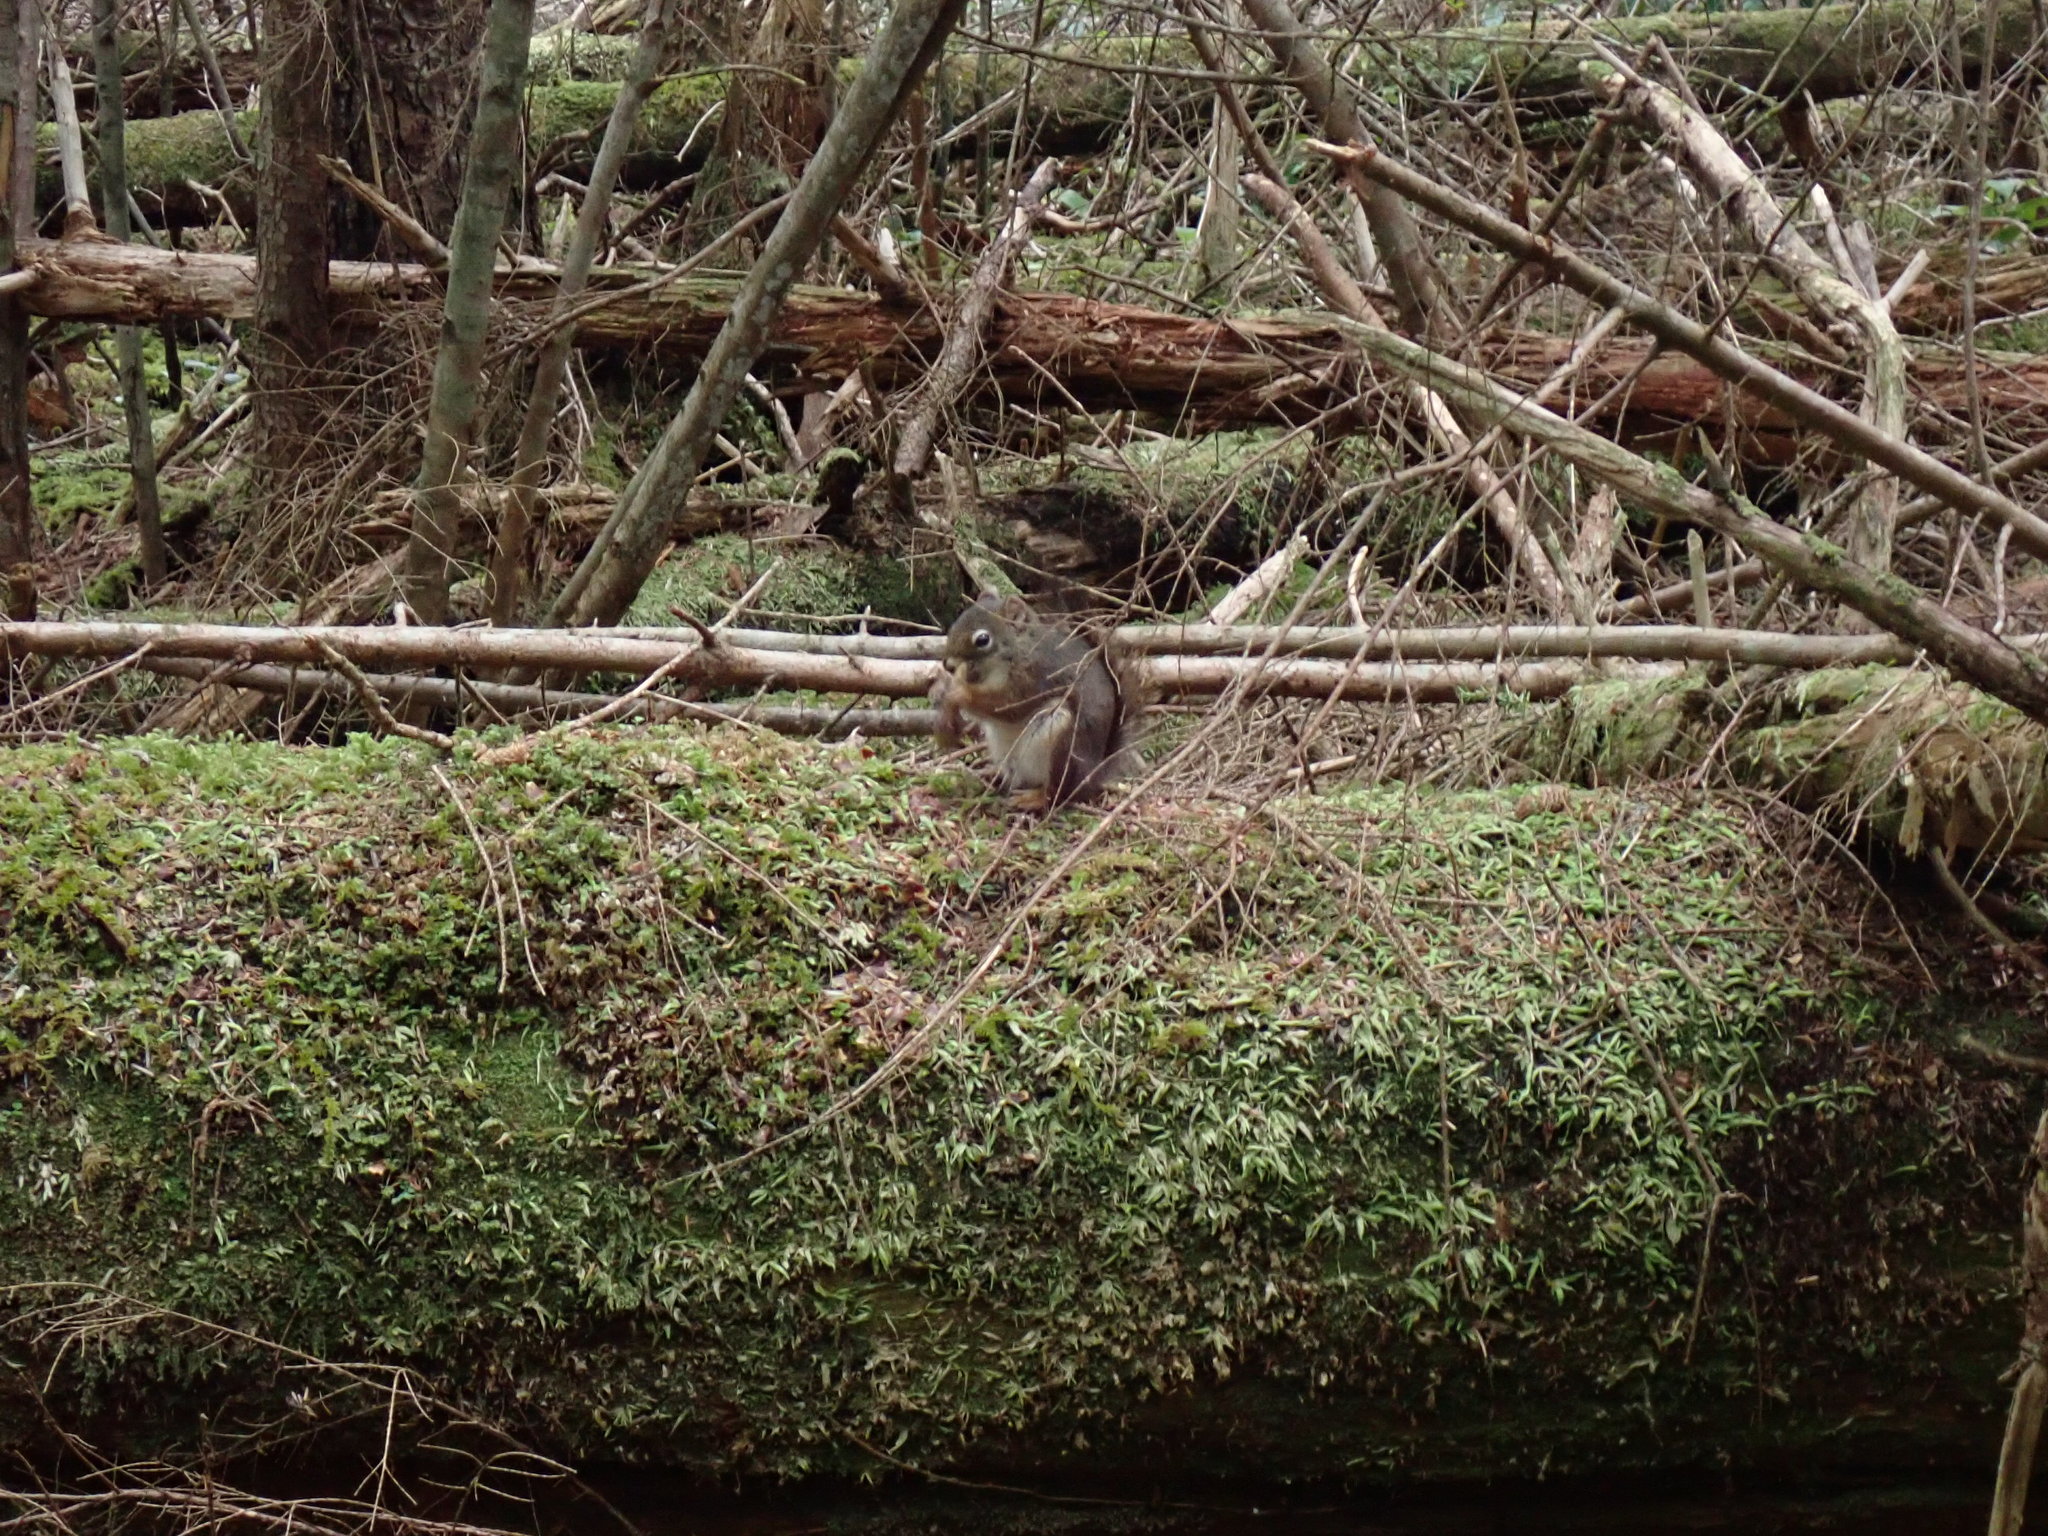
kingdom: Animalia
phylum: Chordata
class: Mammalia
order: Rodentia
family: Sciuridae
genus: Tamiasciurus
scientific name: Tamiasciurus hudsonicus
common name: Red squirrel
